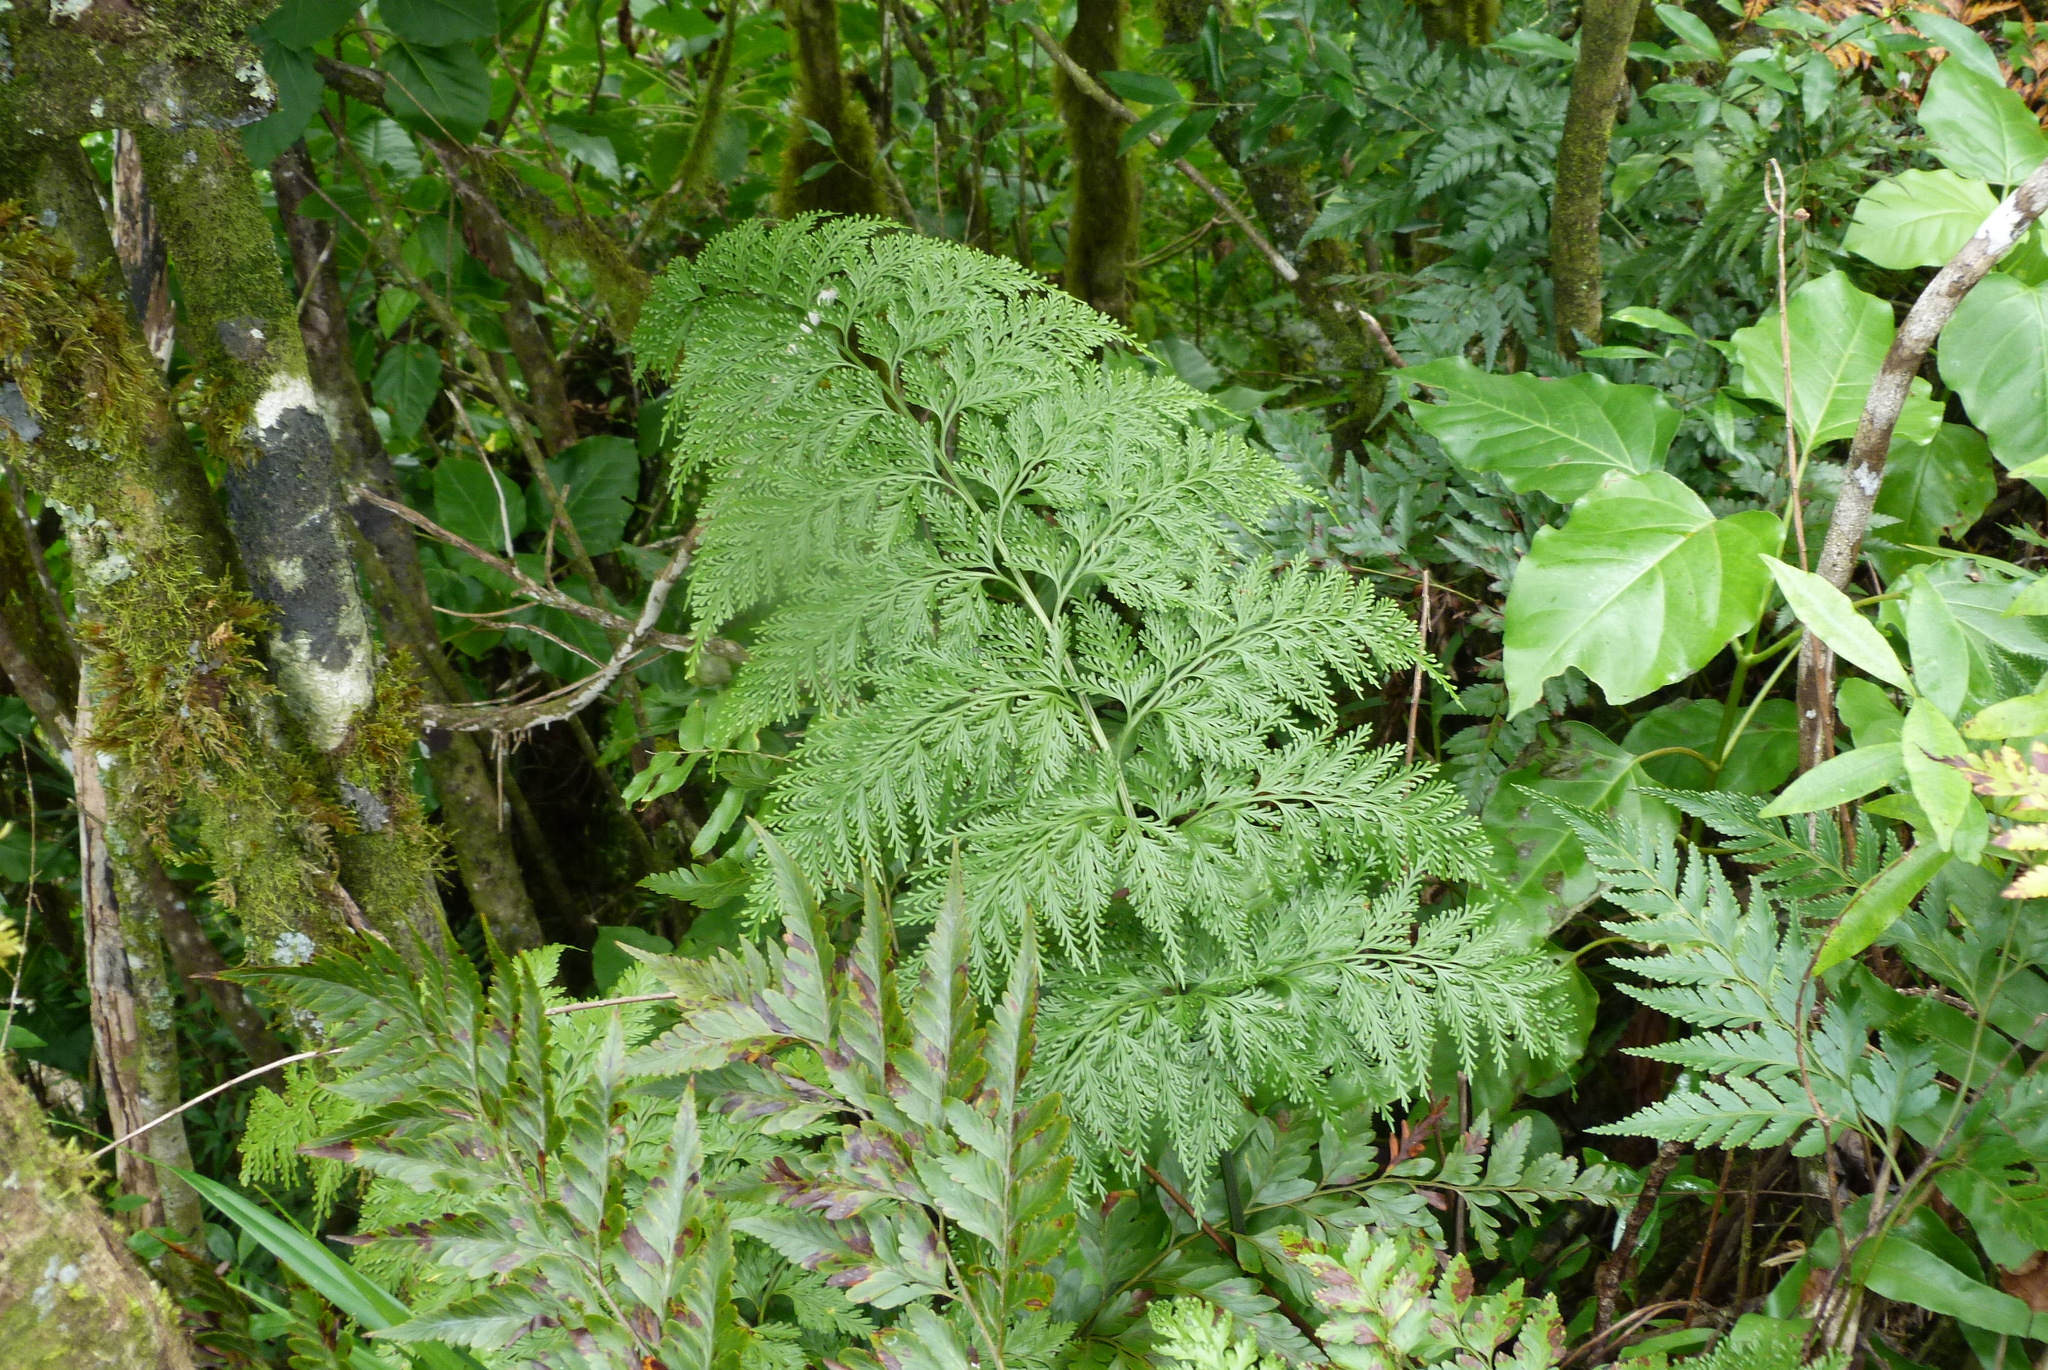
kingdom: Plantae
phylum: Tracheophyta
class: Polypodiopsida
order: Polypodiales
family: Aspleniaceae
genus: Asplenium
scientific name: Asplenium gibberosum
